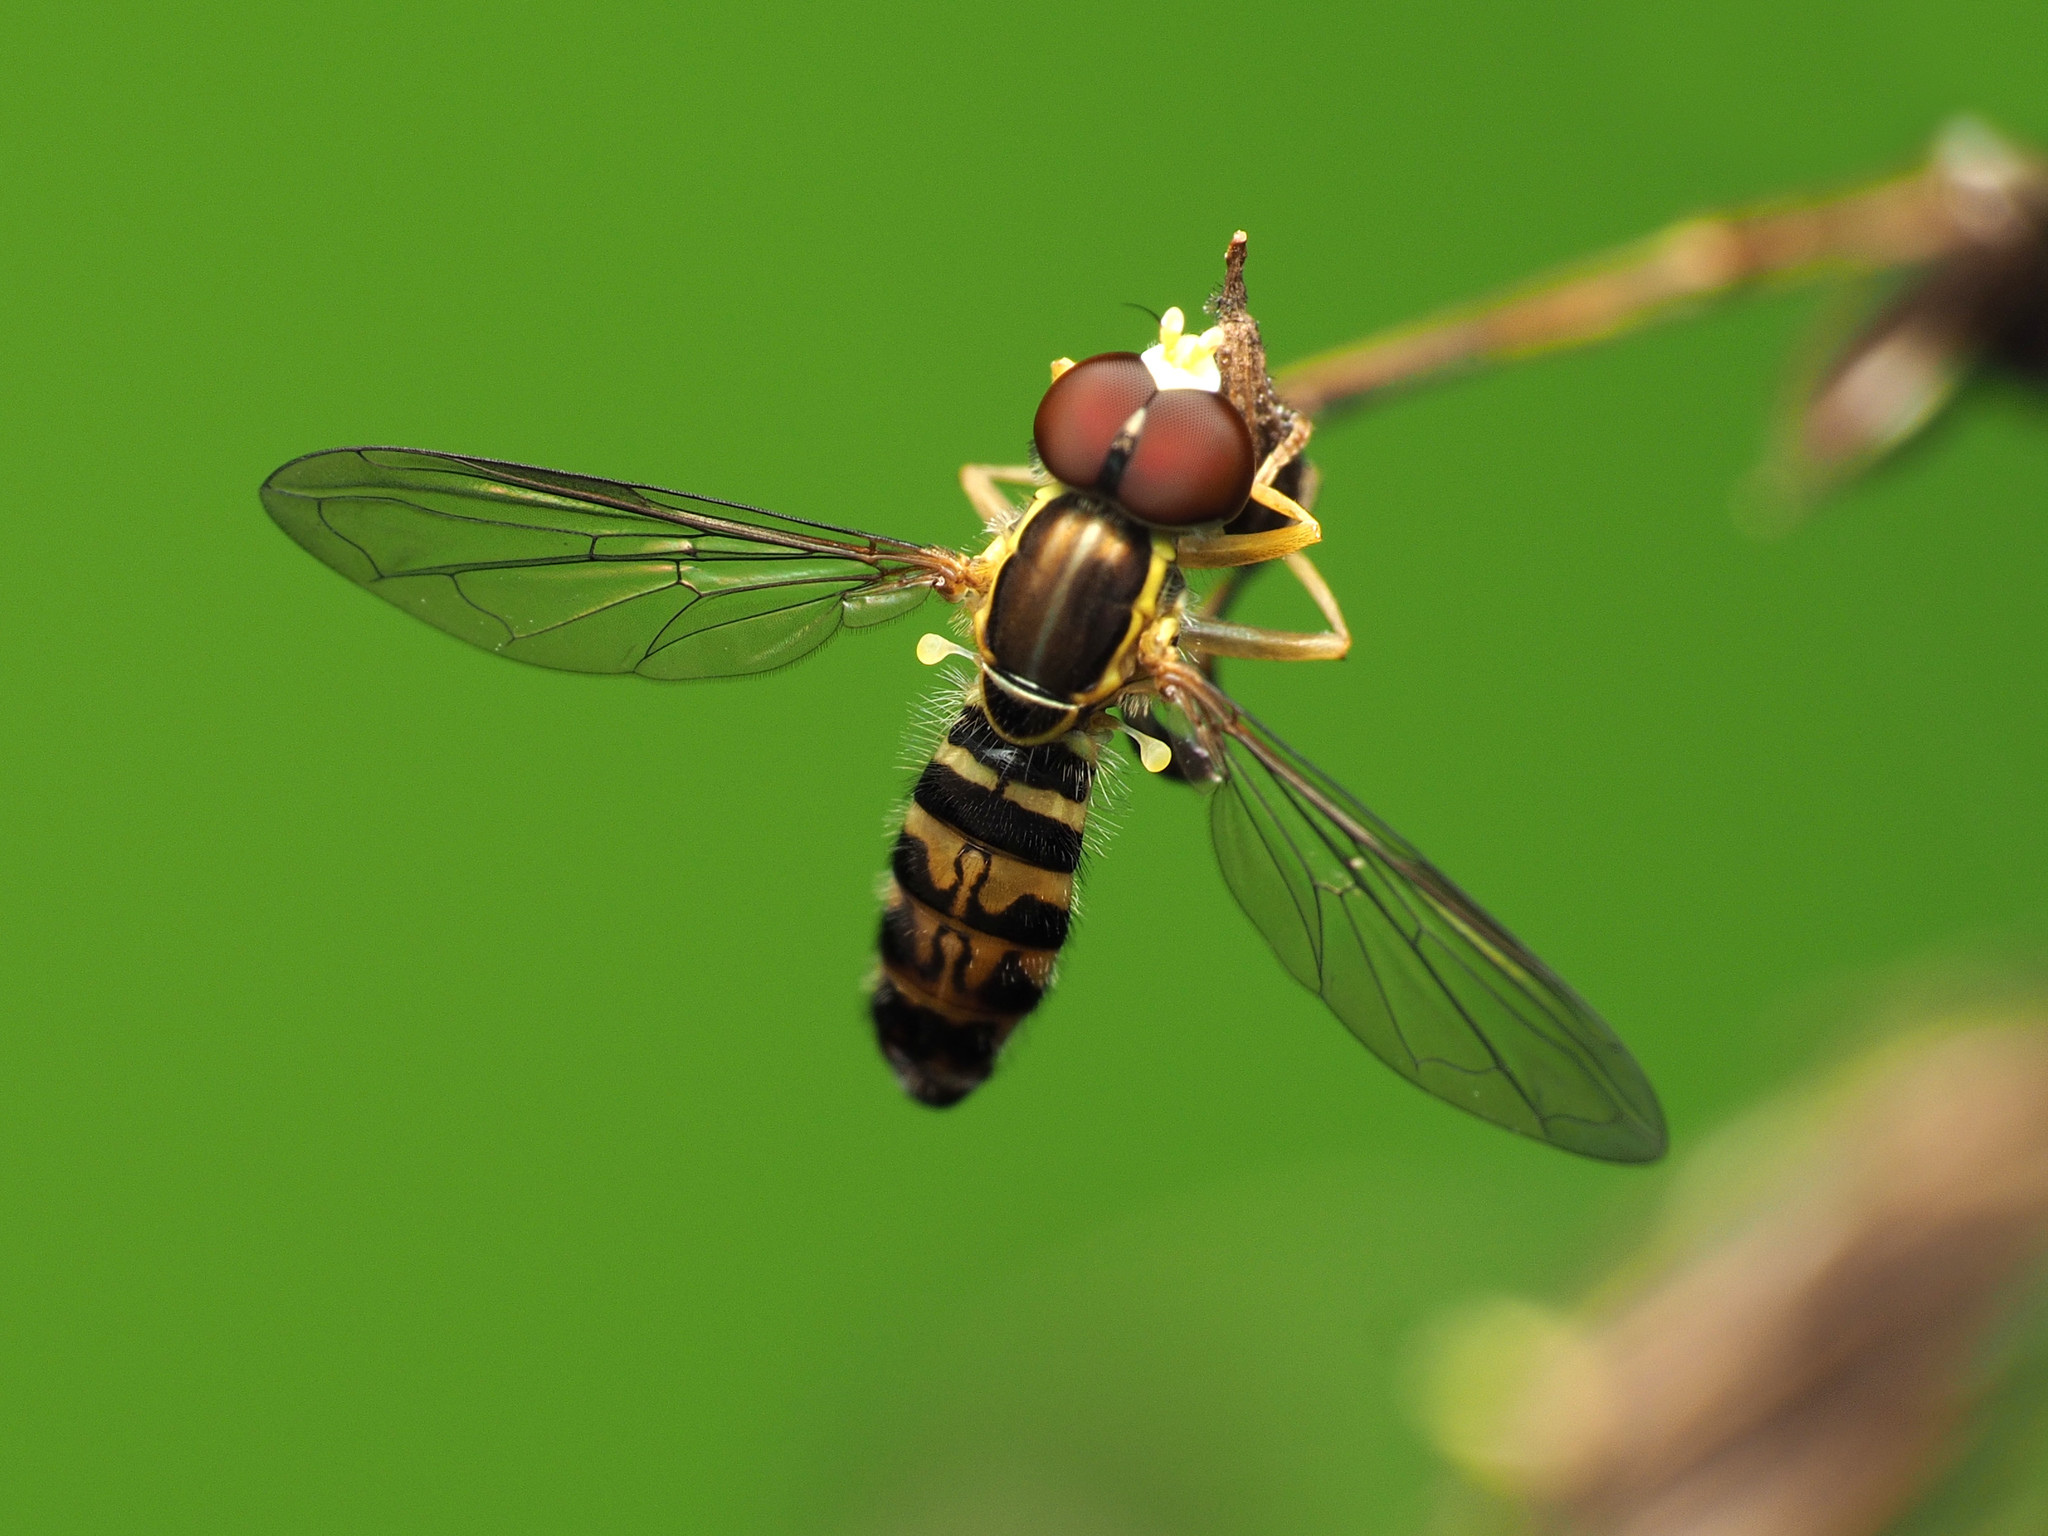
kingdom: Animalia
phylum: Arthropoda
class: Insecta
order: Diptera
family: Syrphidae
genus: Toxomerus
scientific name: Toxomerus geminatus
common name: Eastern calligrapher
